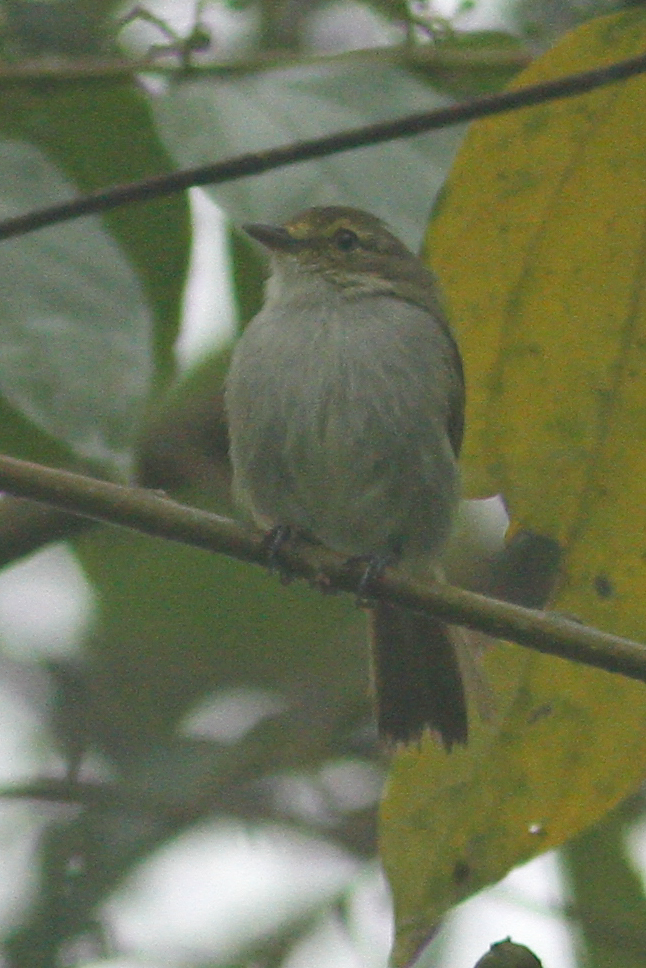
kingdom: Animalia
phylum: Chordata
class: Aves
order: Passeriformes
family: Tyrannidae
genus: Zimmerius
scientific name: Zimmerius chrysops
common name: Golden-faced tyrannulet
